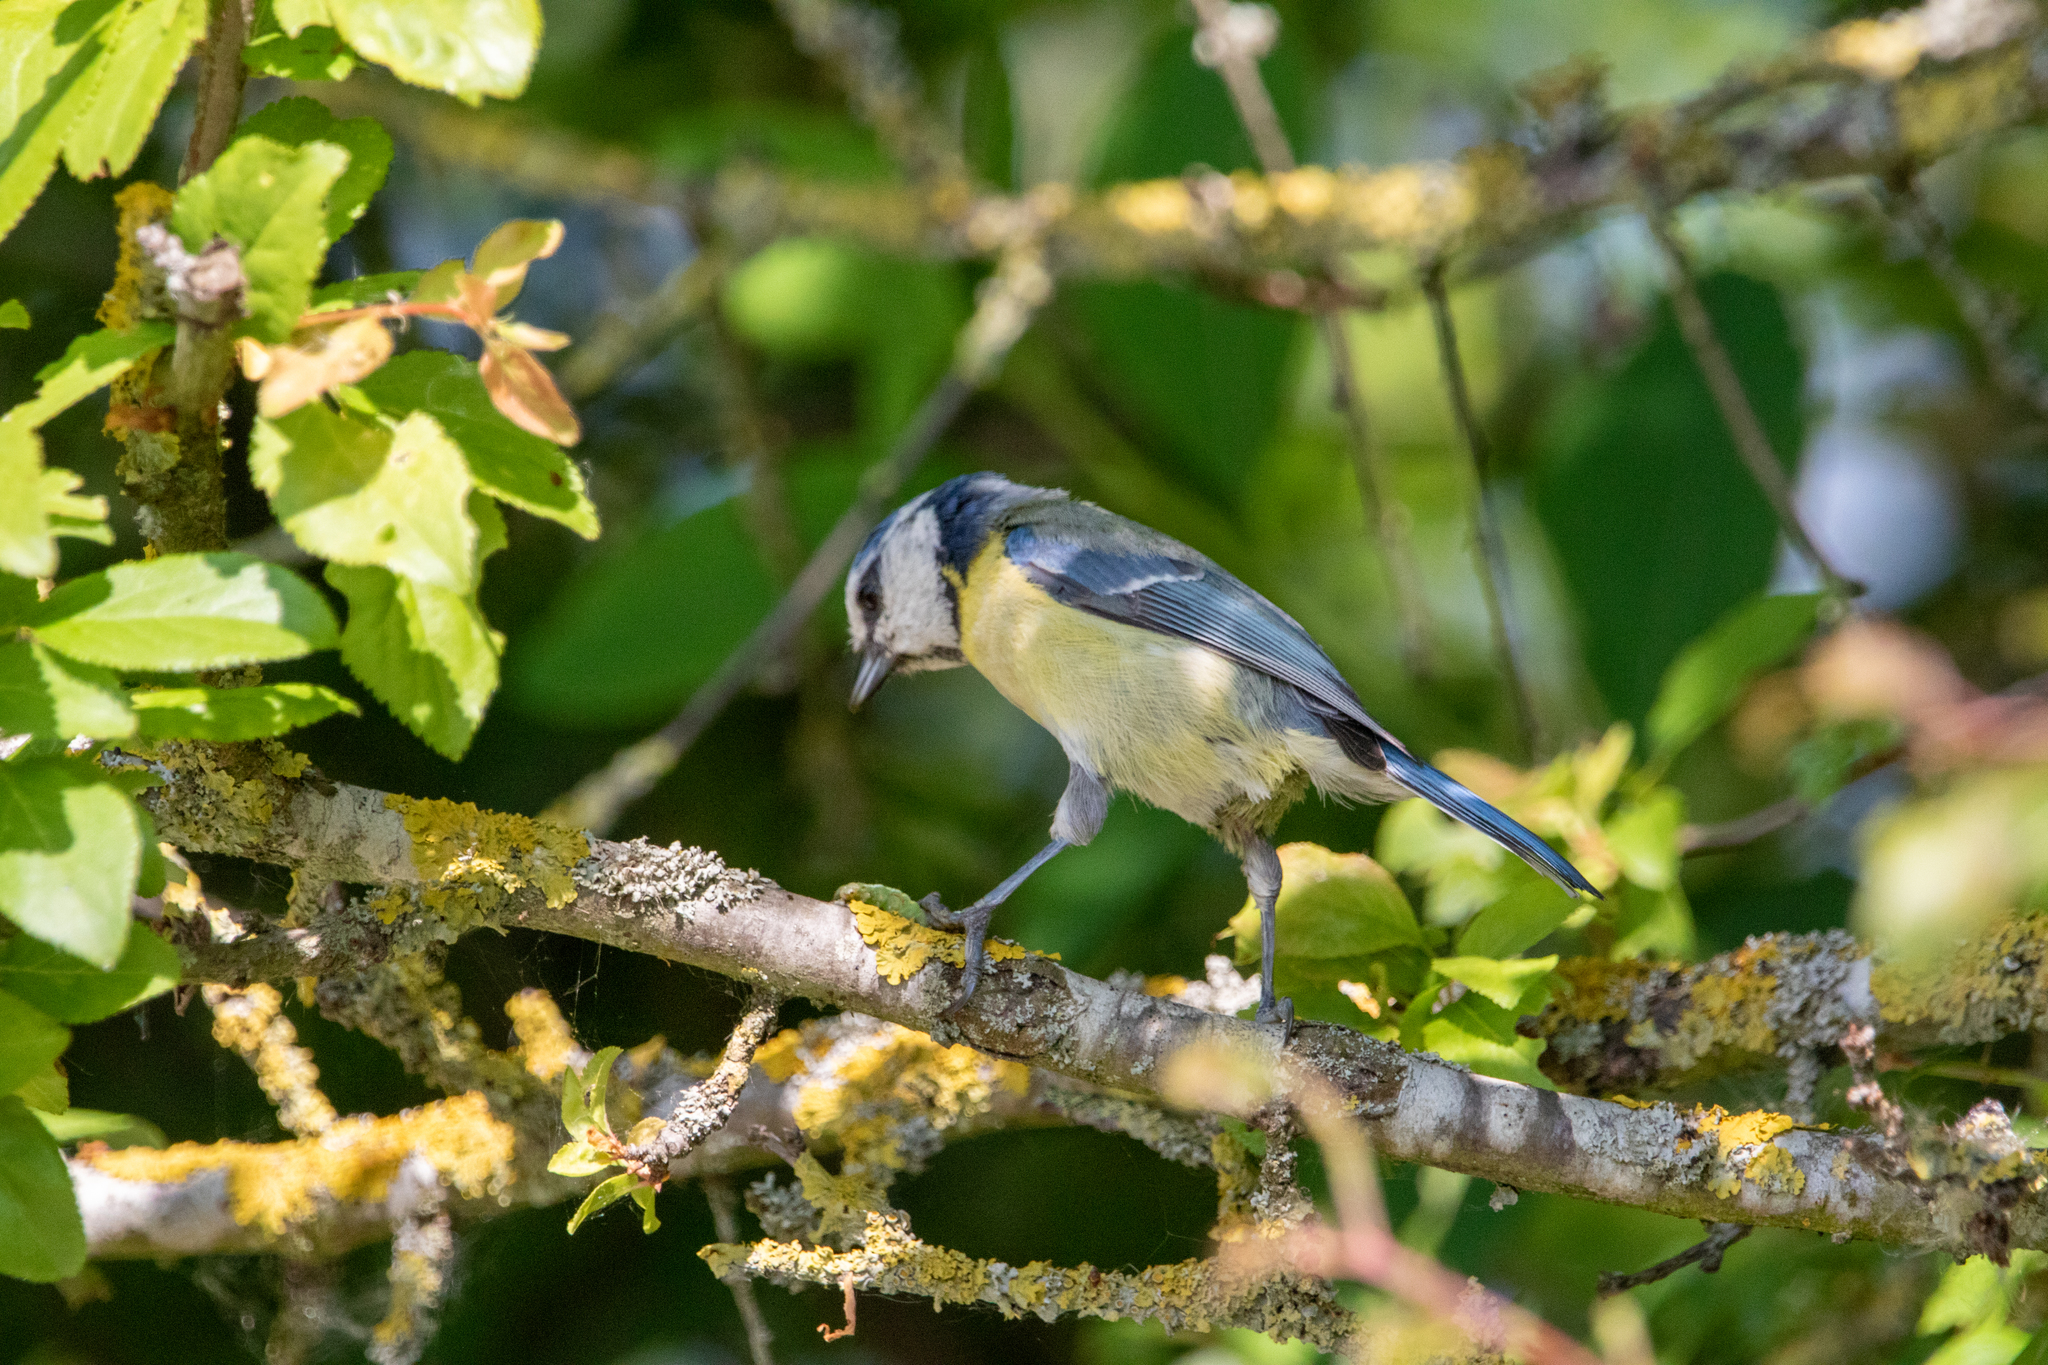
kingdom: Animalia
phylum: Chordata
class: Aves
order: Passeriformes
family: Paridae
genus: Cyanistes
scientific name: Cyanistes caeruleus
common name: Eurasian blue tit
